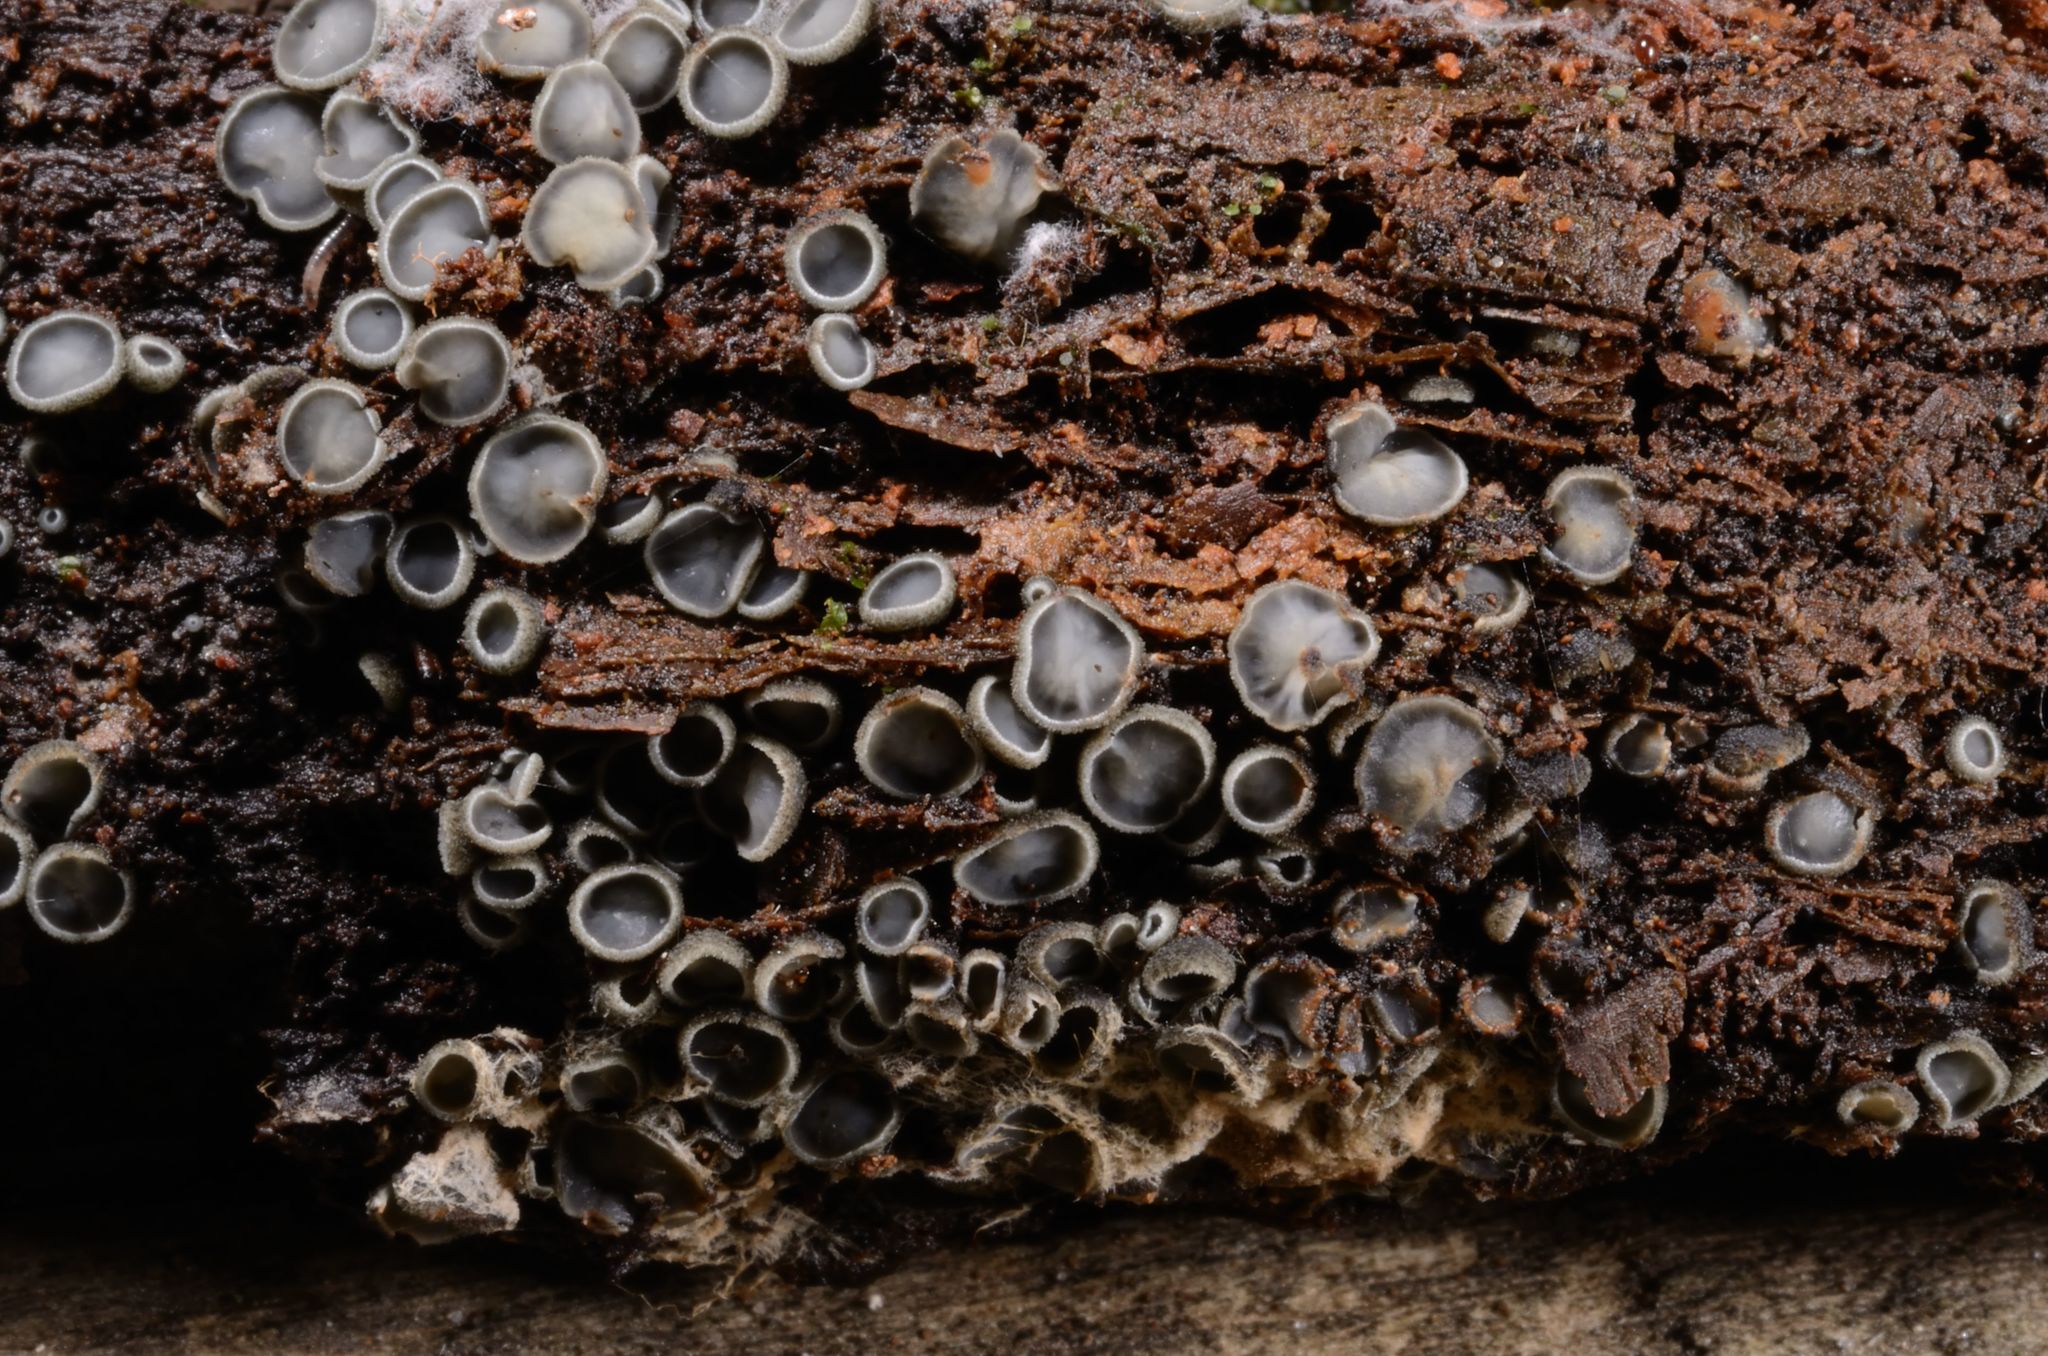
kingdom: Fungi
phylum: Ascomycota
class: Leotiomycetes
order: Helotiales
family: Mollisiaceae
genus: Mollisia
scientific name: Mollisia olivascens
